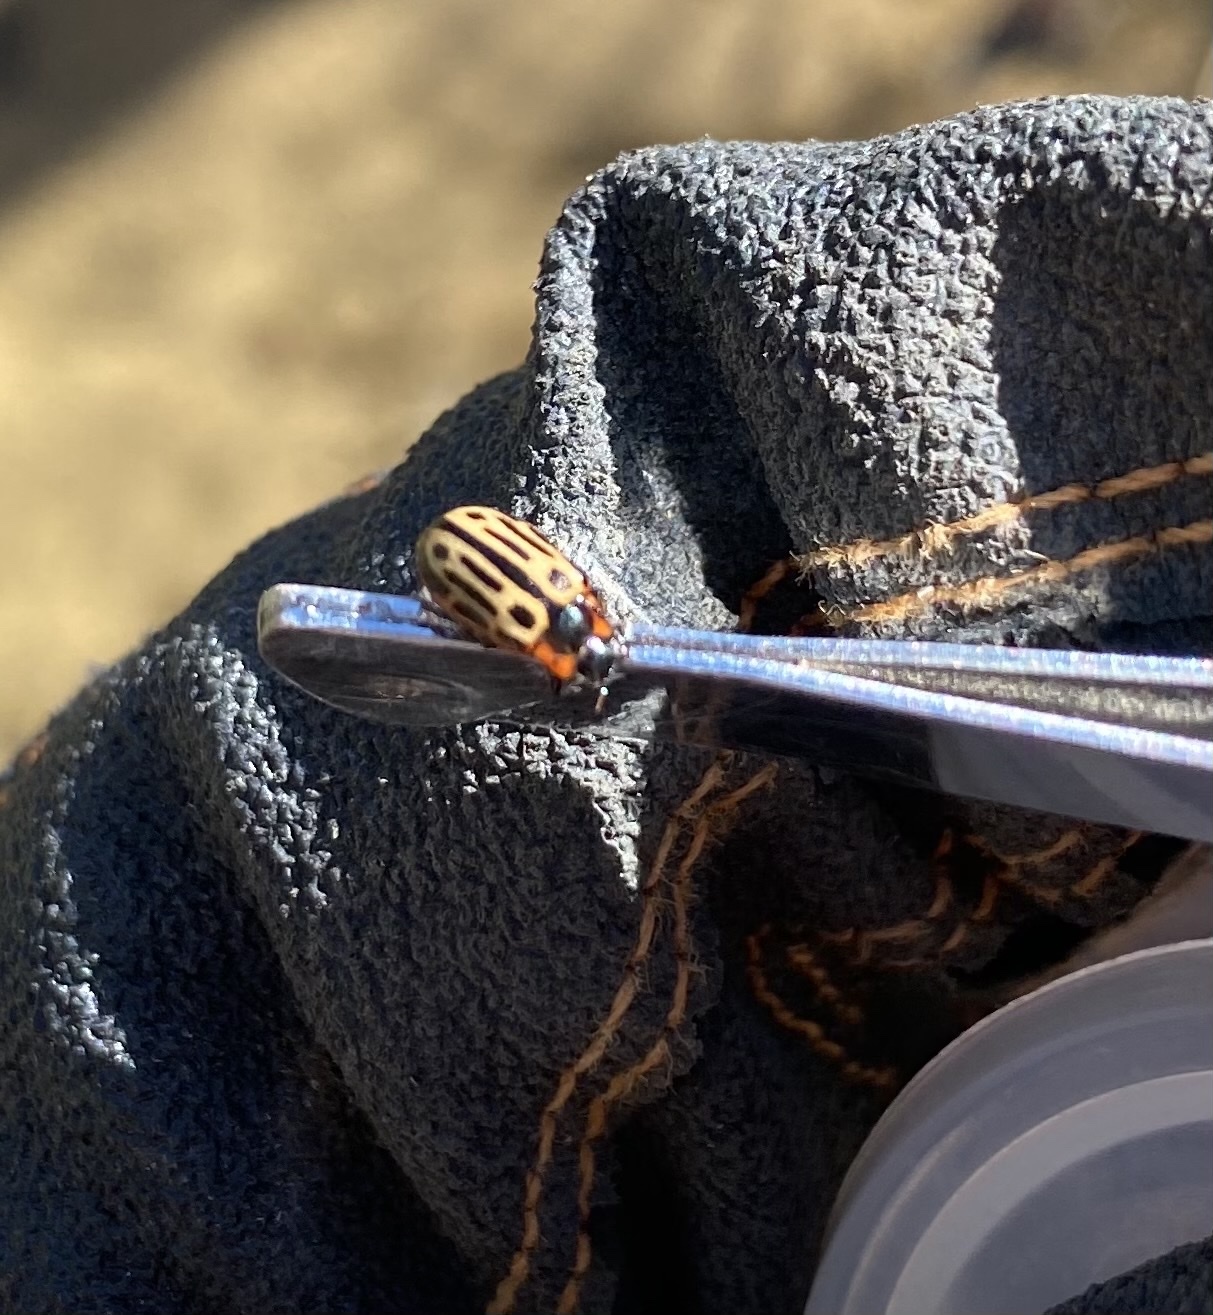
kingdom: Animalia
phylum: Arthropoda
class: Insecta
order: Coleoptera
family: Chrysomelidae
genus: Aethiopocassis
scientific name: Aethiopocassis scripta
